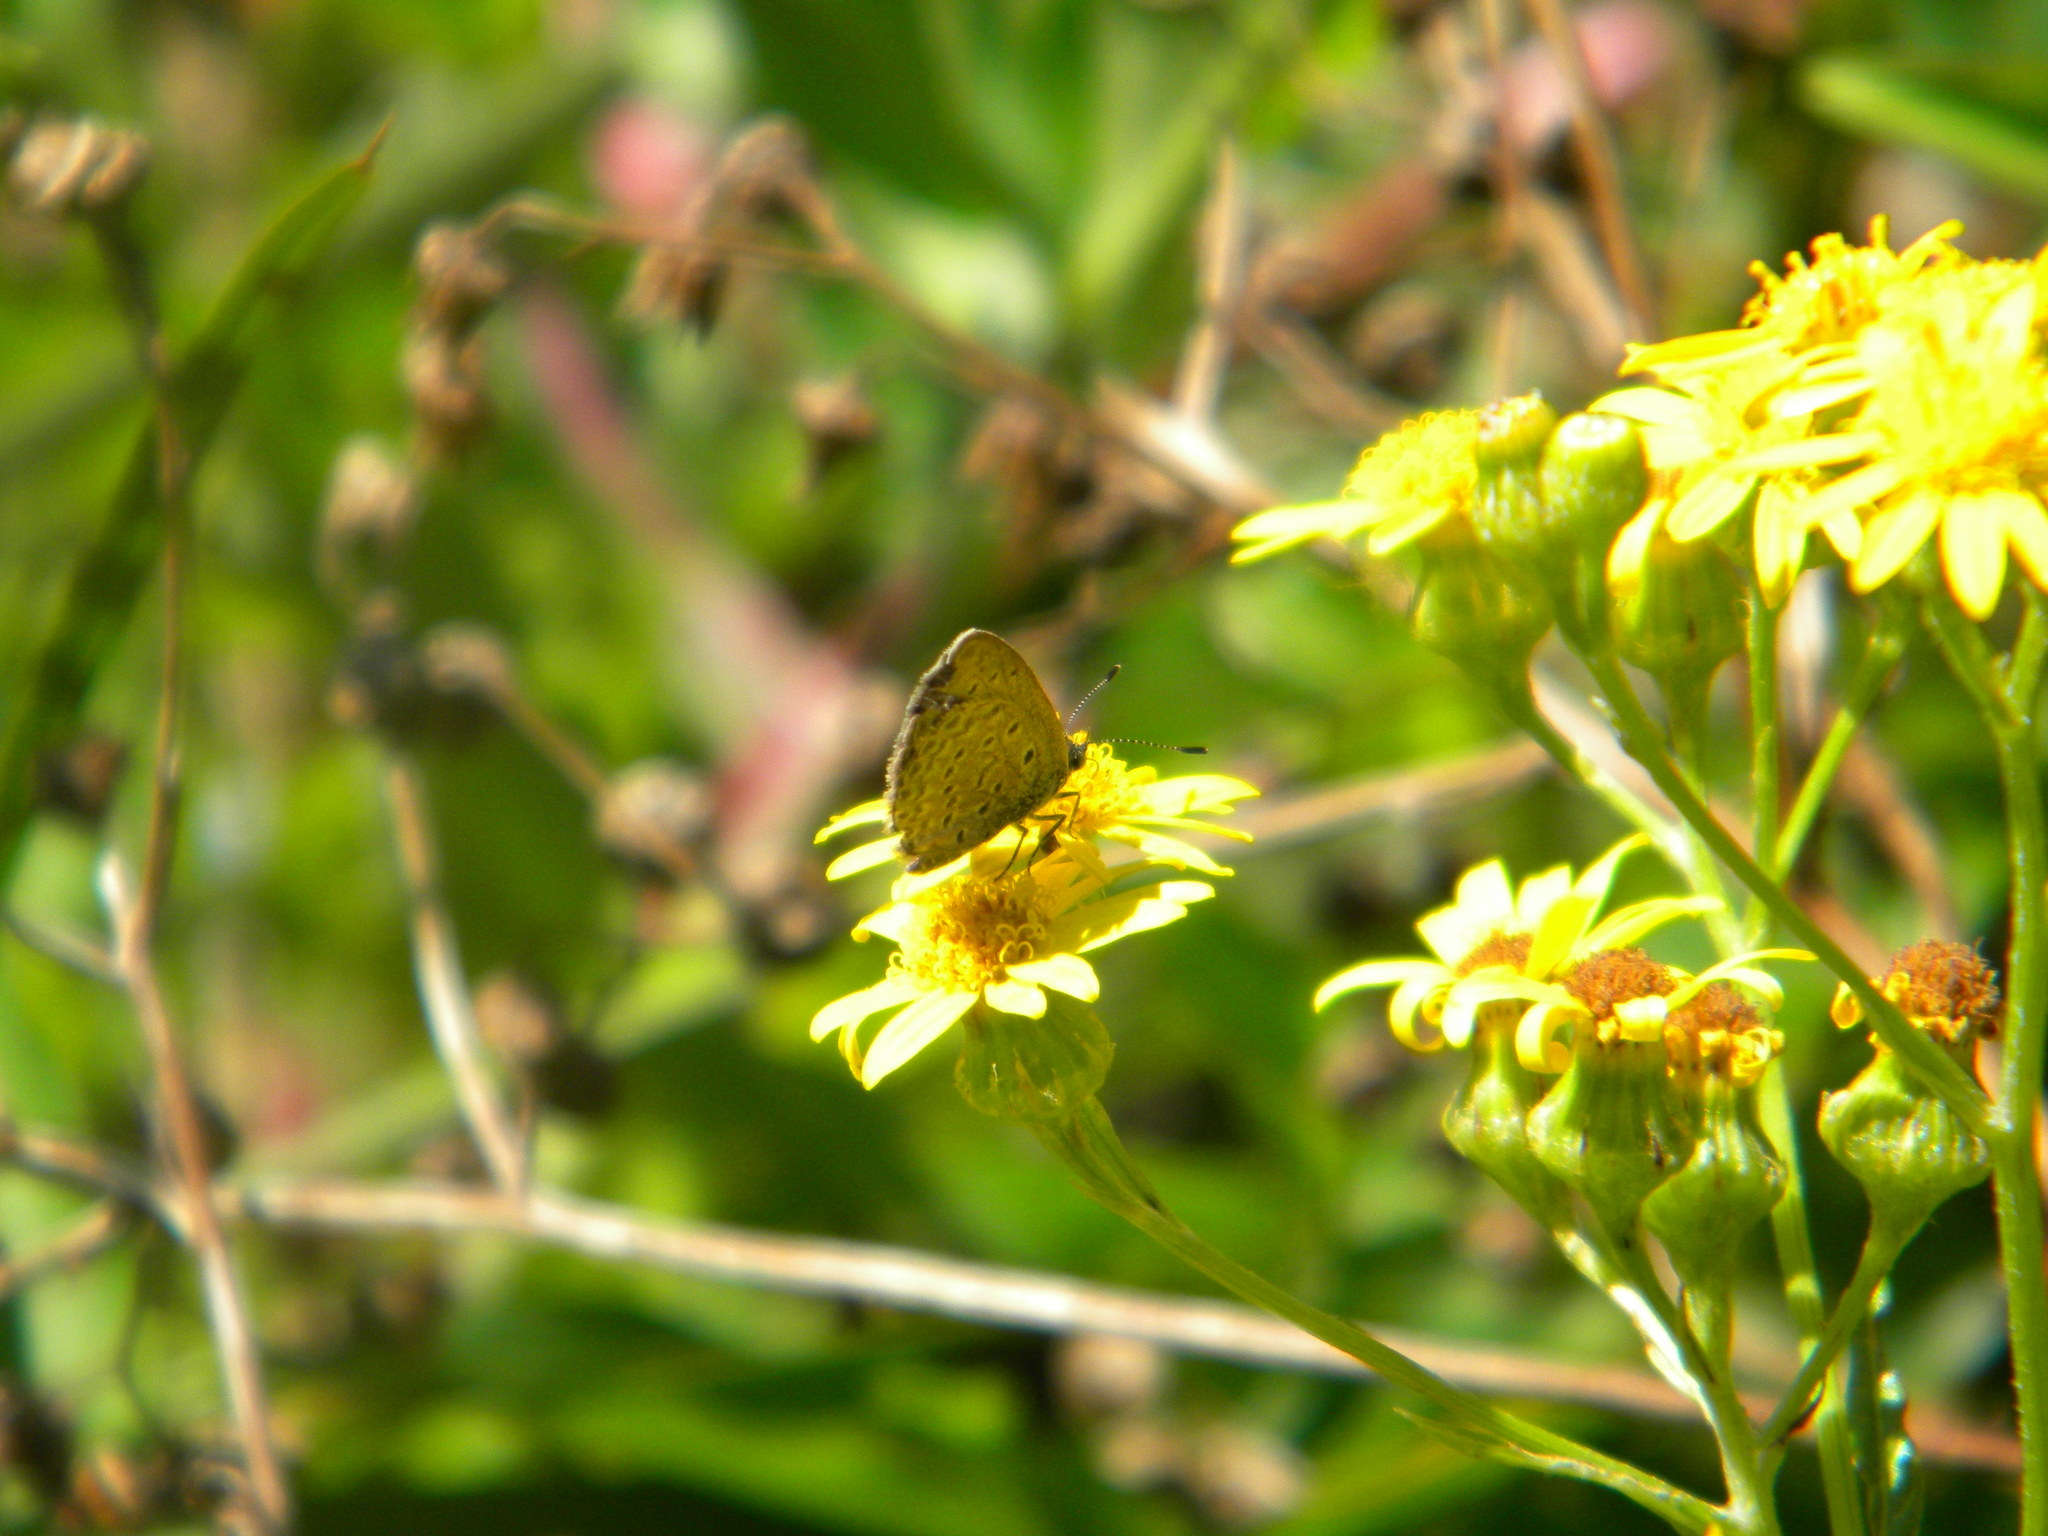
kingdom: Animalia
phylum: Arthropoda
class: Insecta
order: Lepidoptera
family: Lycaenidae
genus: Zizeeria
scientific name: Zizeeria knysna
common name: African grass blue
